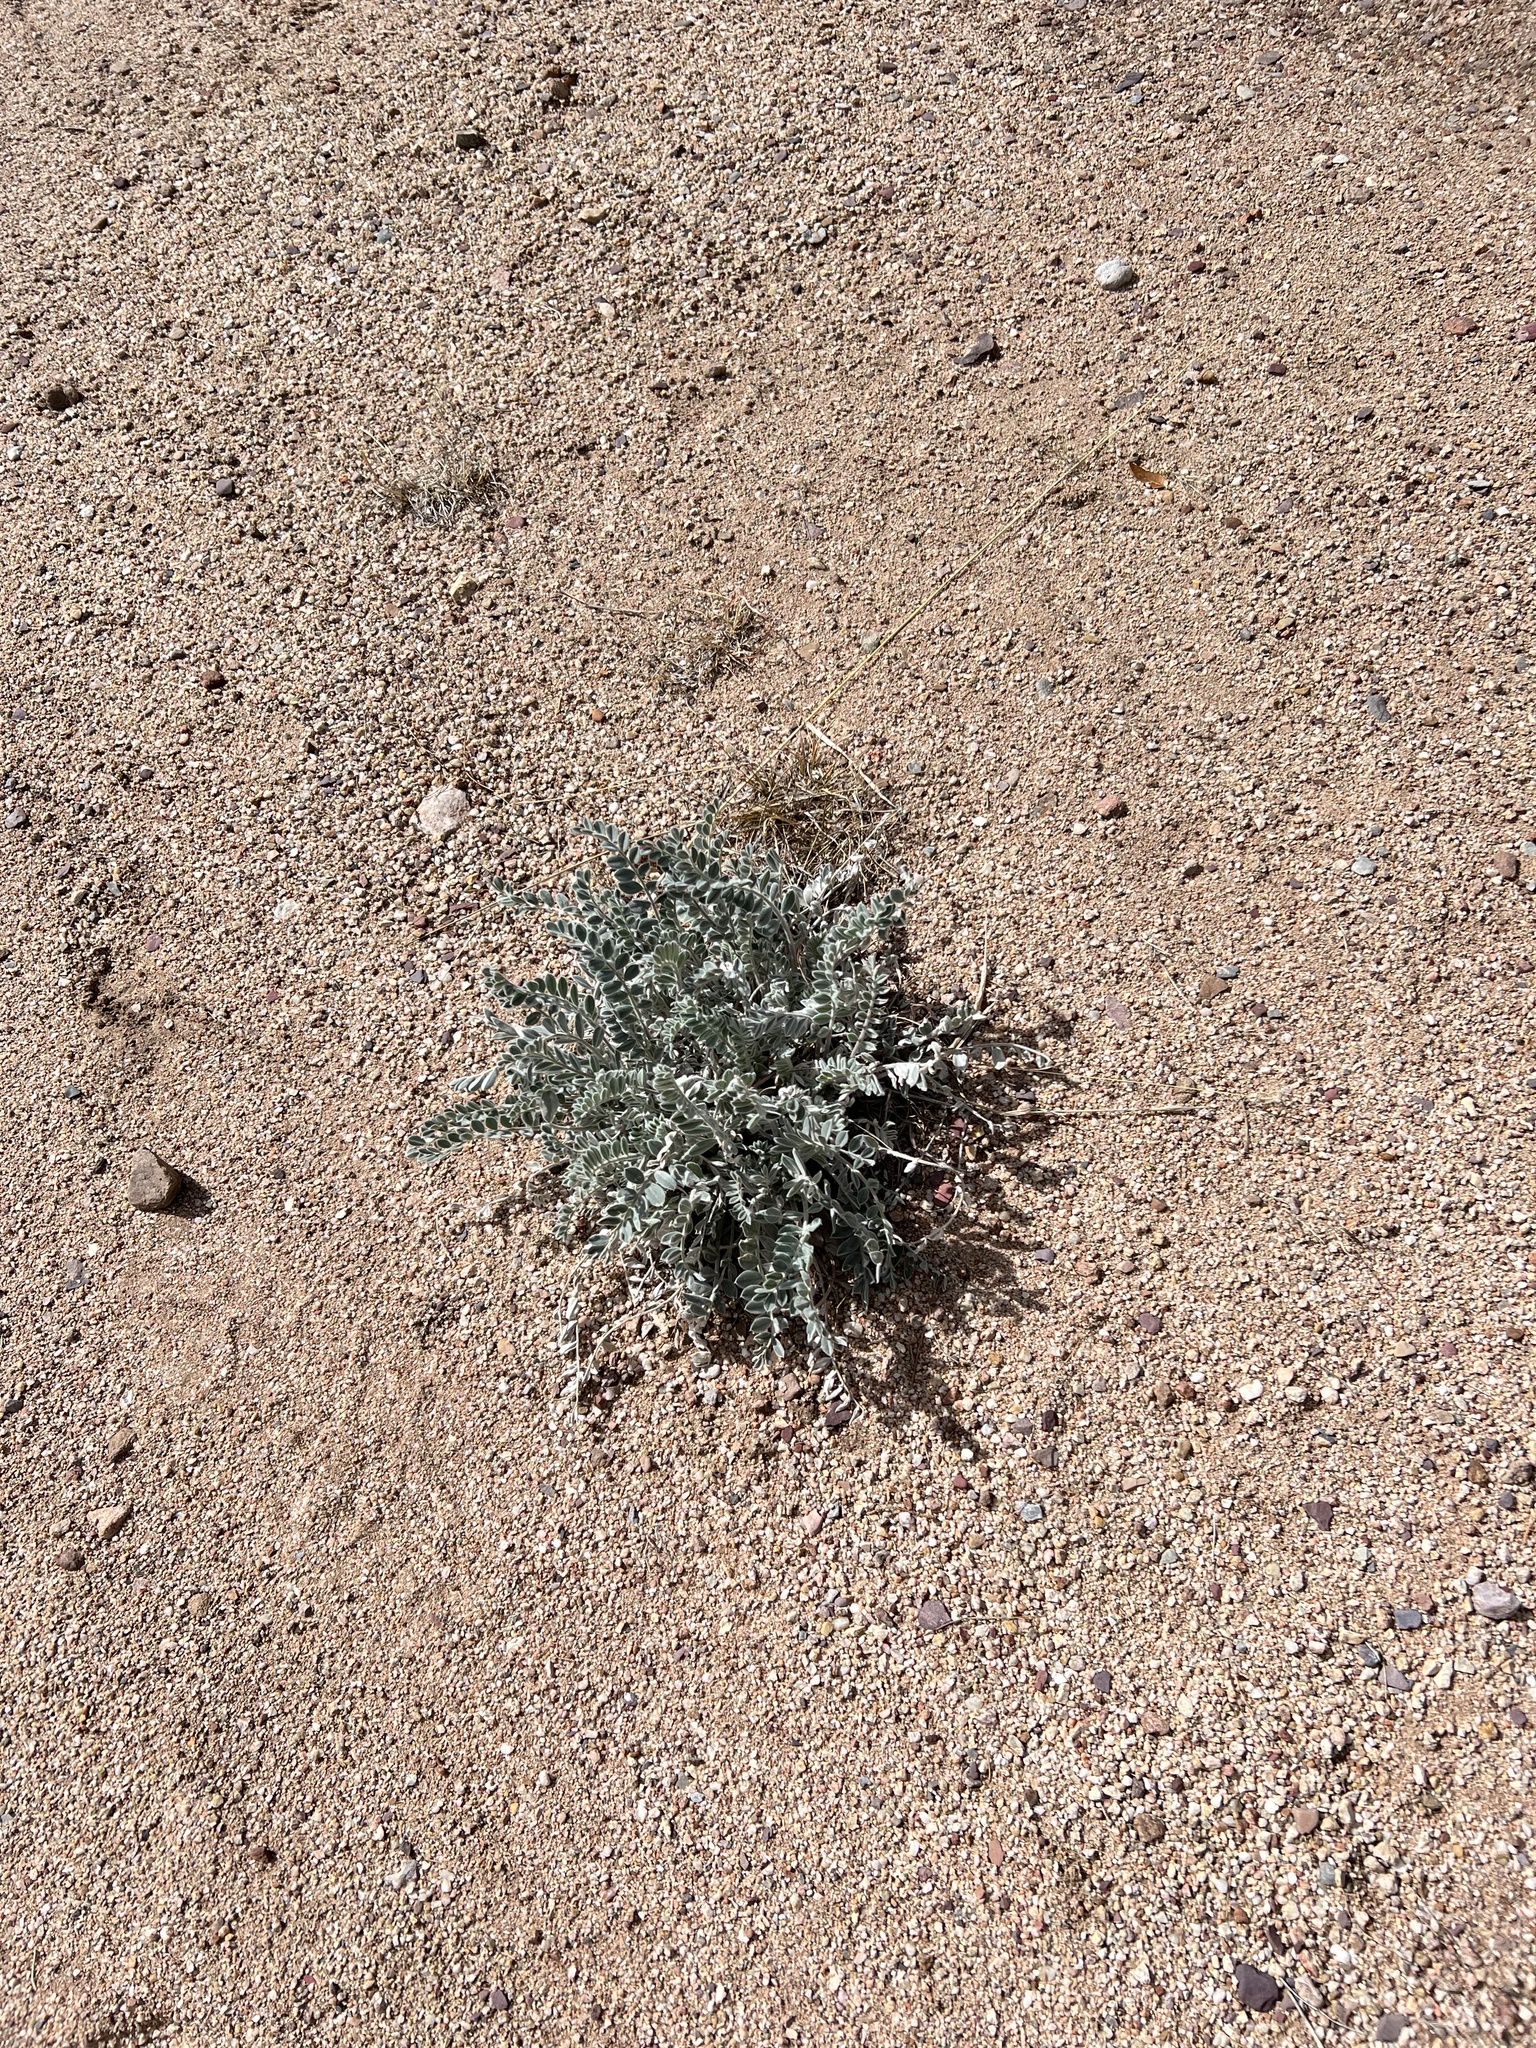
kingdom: Plantae
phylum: Tracheophyta
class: Magnoliopsida
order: Fabales
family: Fabaceae
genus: Astragalus
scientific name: Astragalus mollissimus
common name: Woolly locoweed
